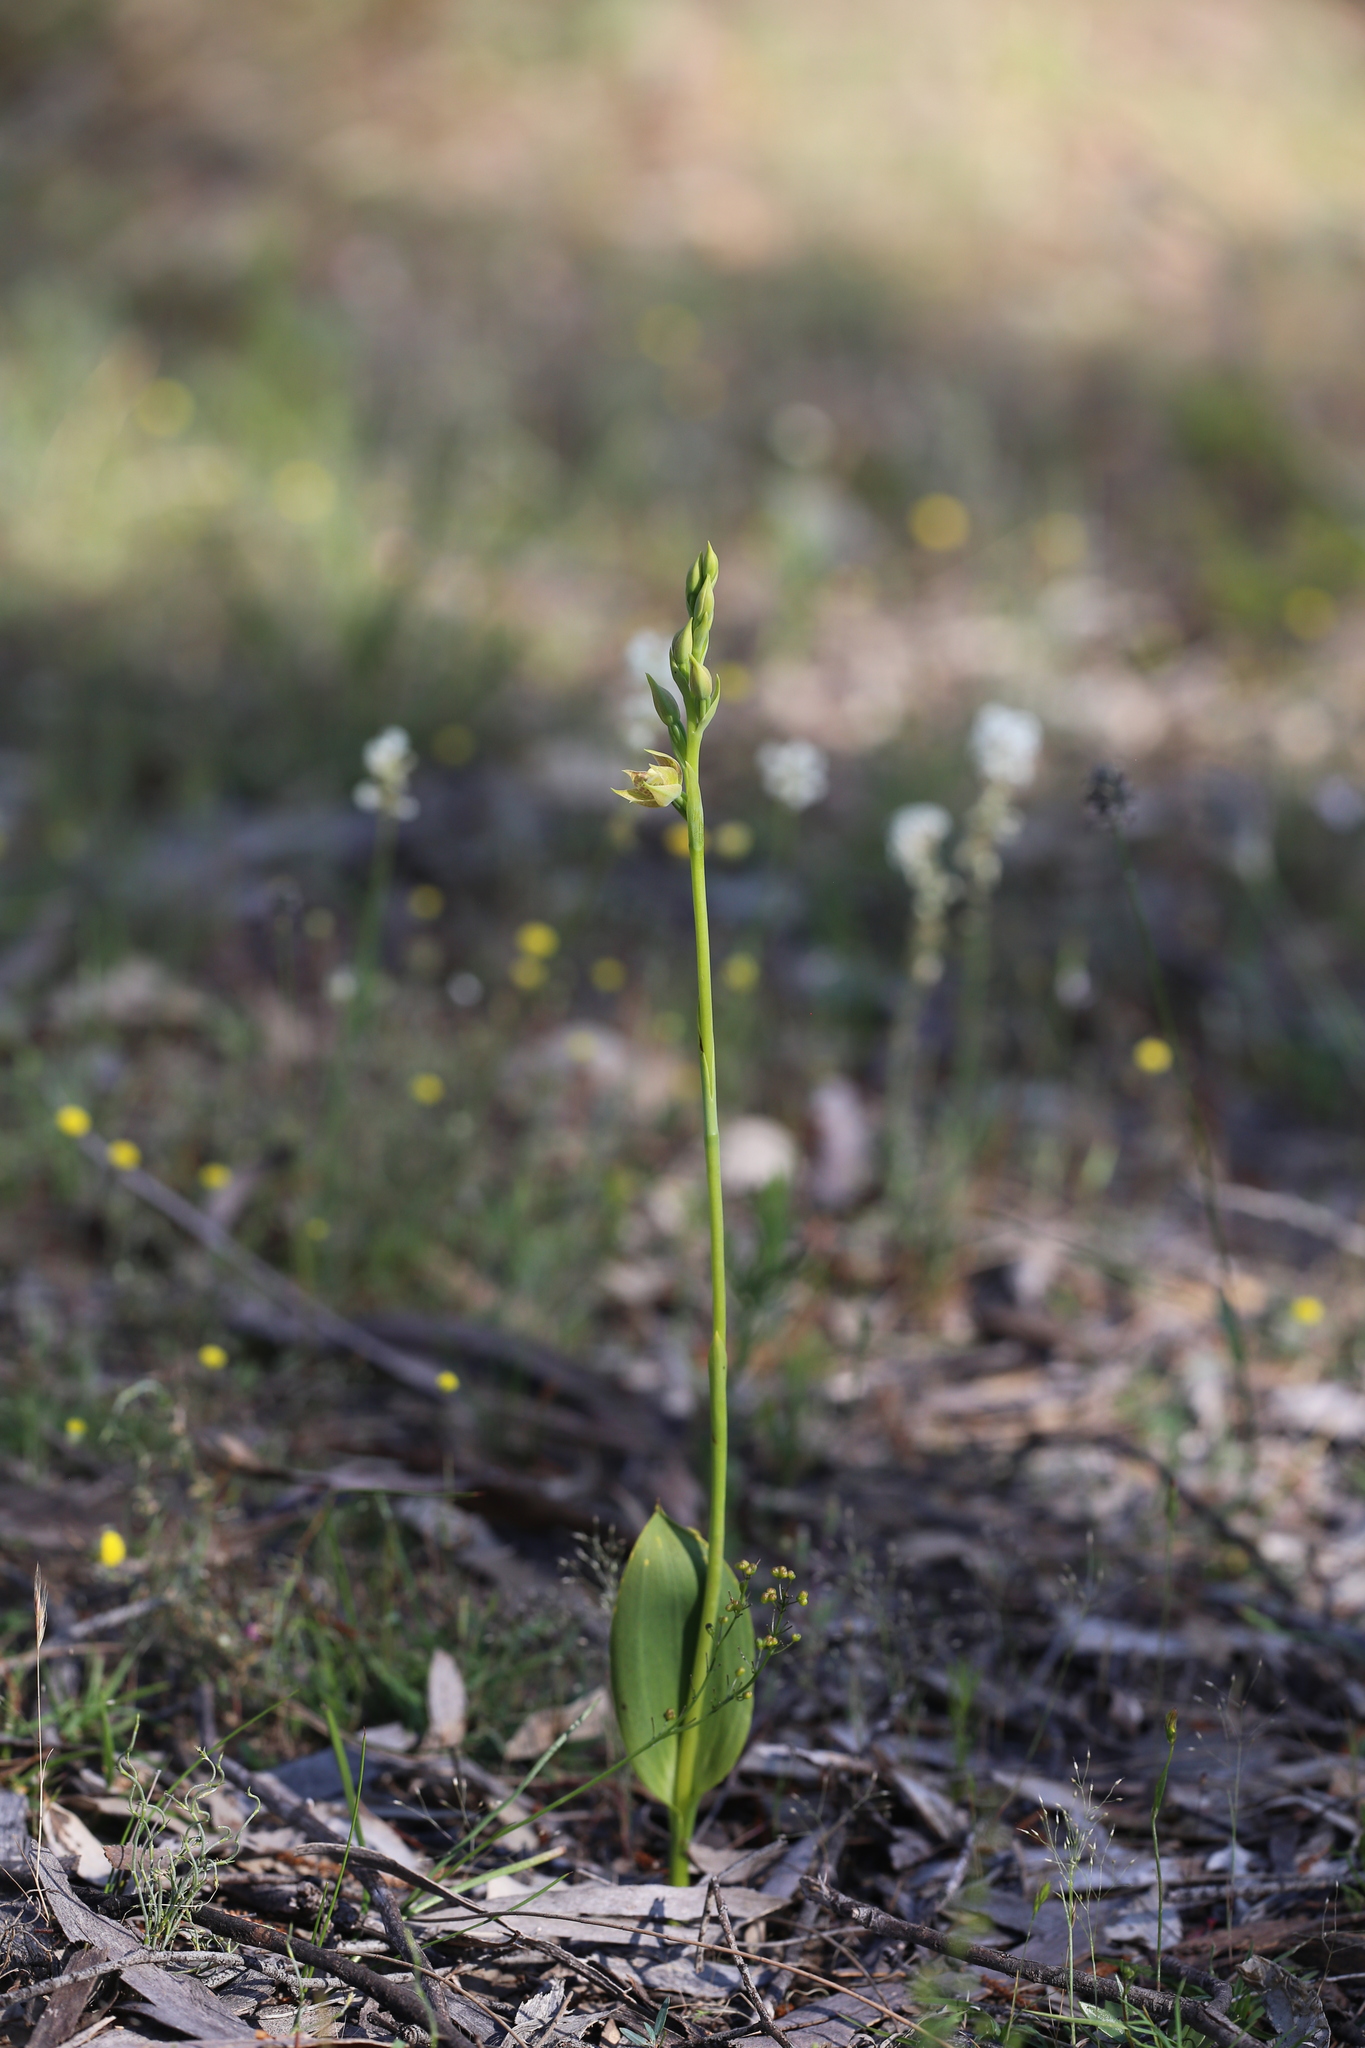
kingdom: Plantae
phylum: Tracheophyta
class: Liliopsida
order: Asparagales
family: Orchidaceae
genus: Thelymitra
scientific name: Thelymitra benthamiana
